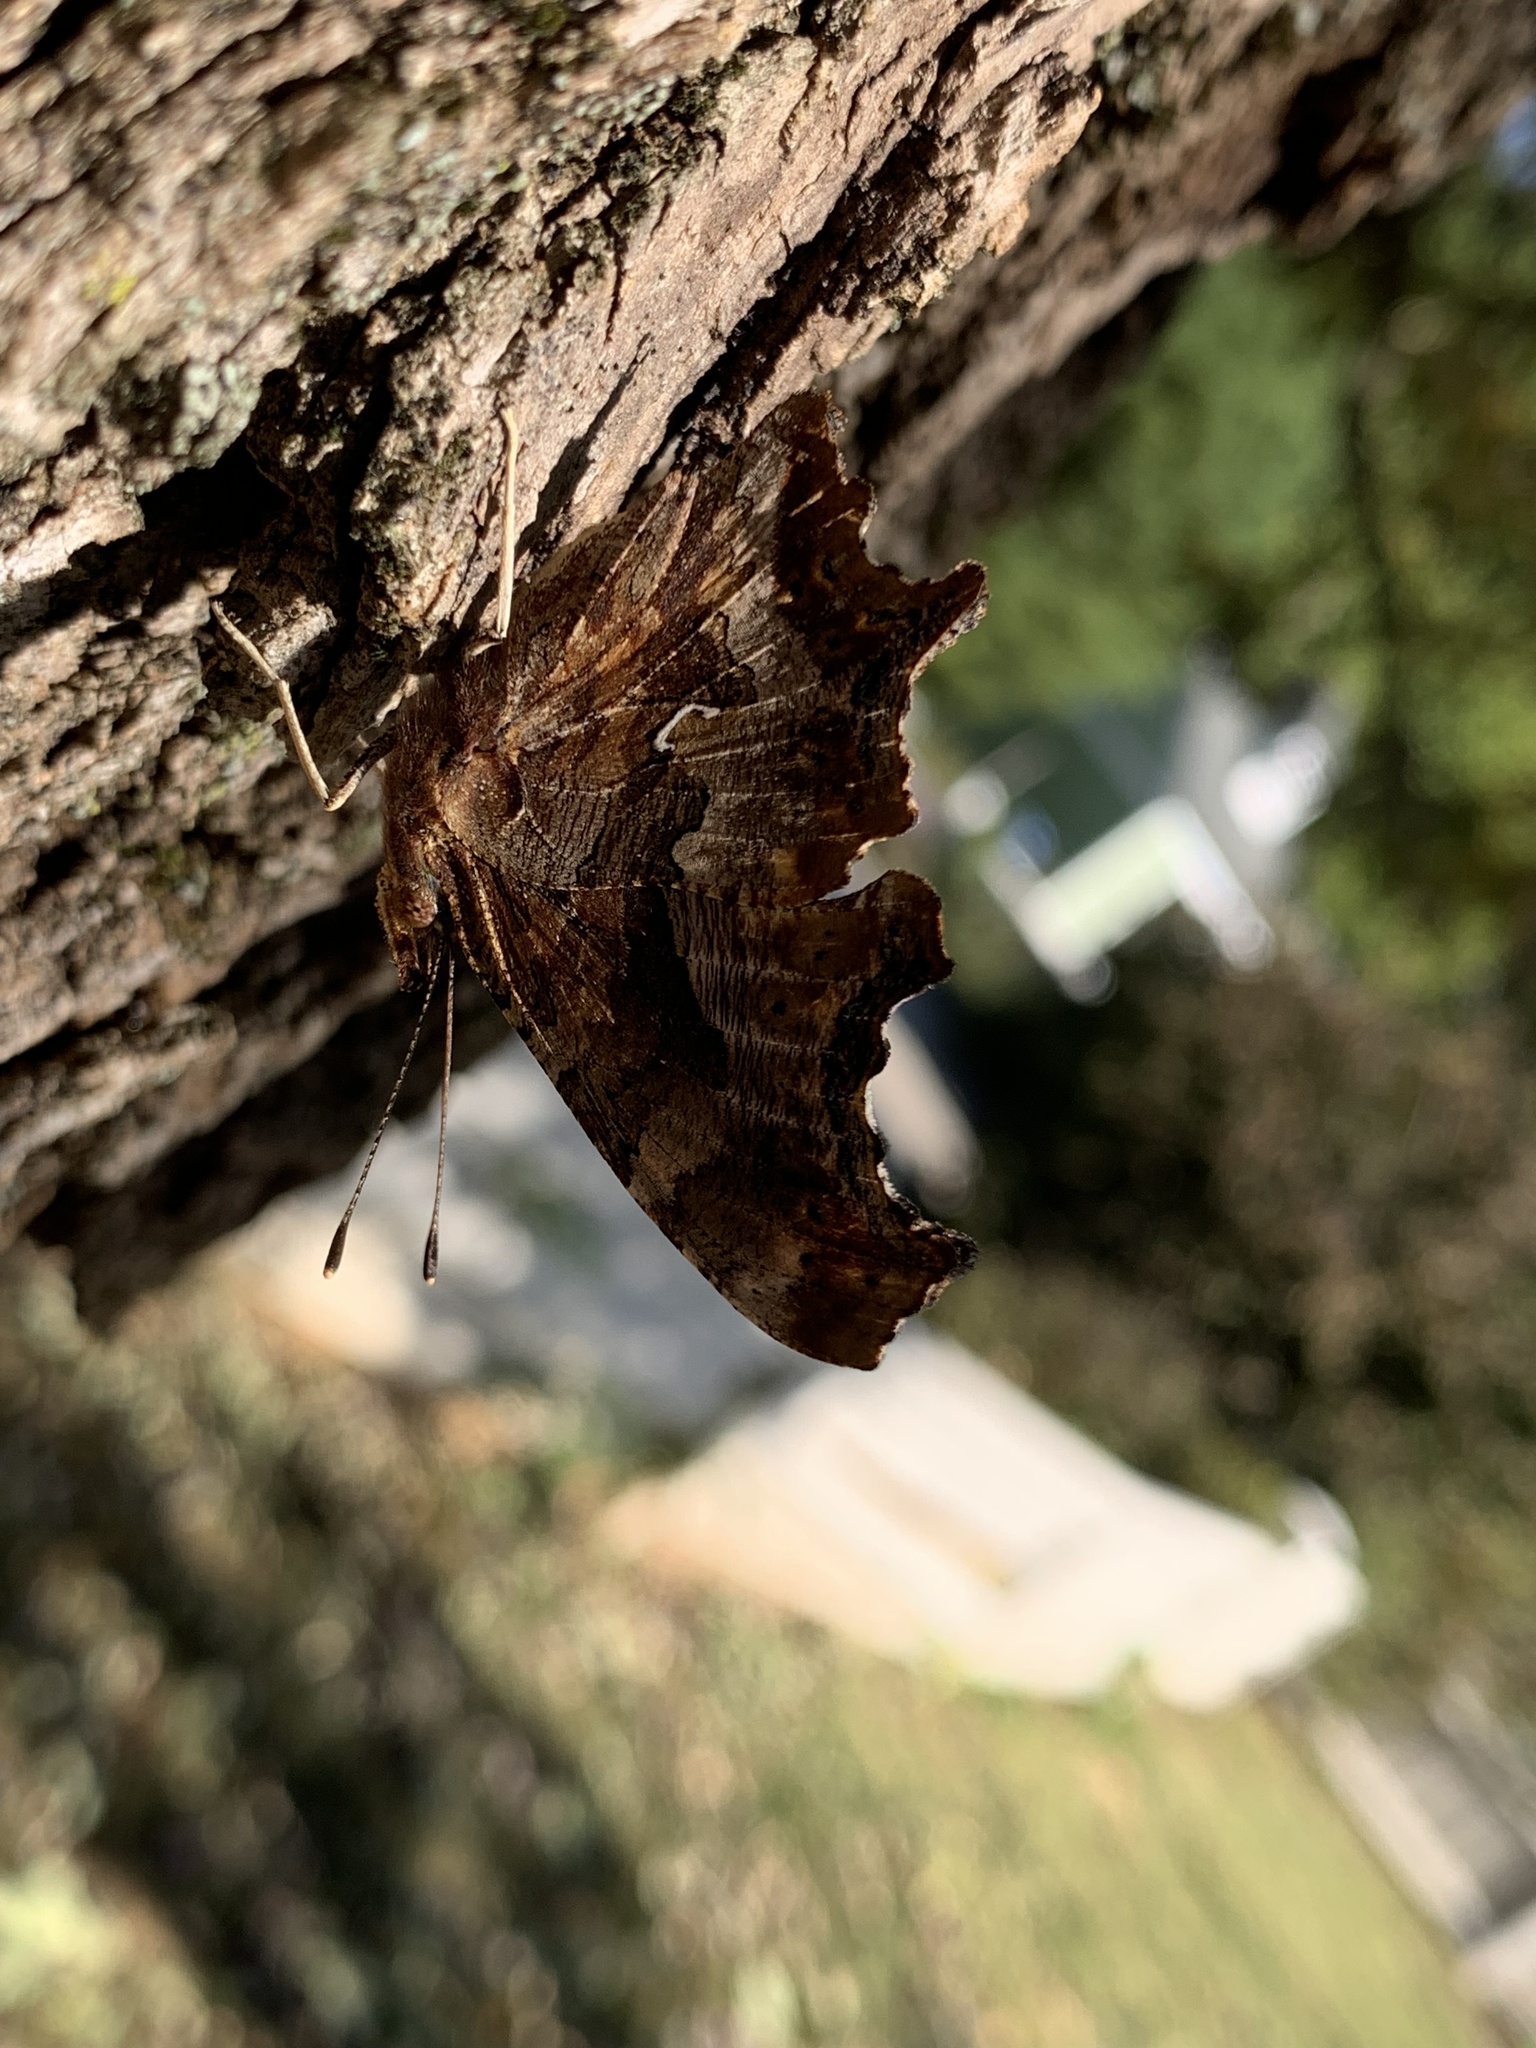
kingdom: Animalia
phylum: Arthropoda
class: Insecta
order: Lepidoptera
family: Nymphalidae
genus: Polygonia
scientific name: Polygonia comma
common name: Eastern comma
